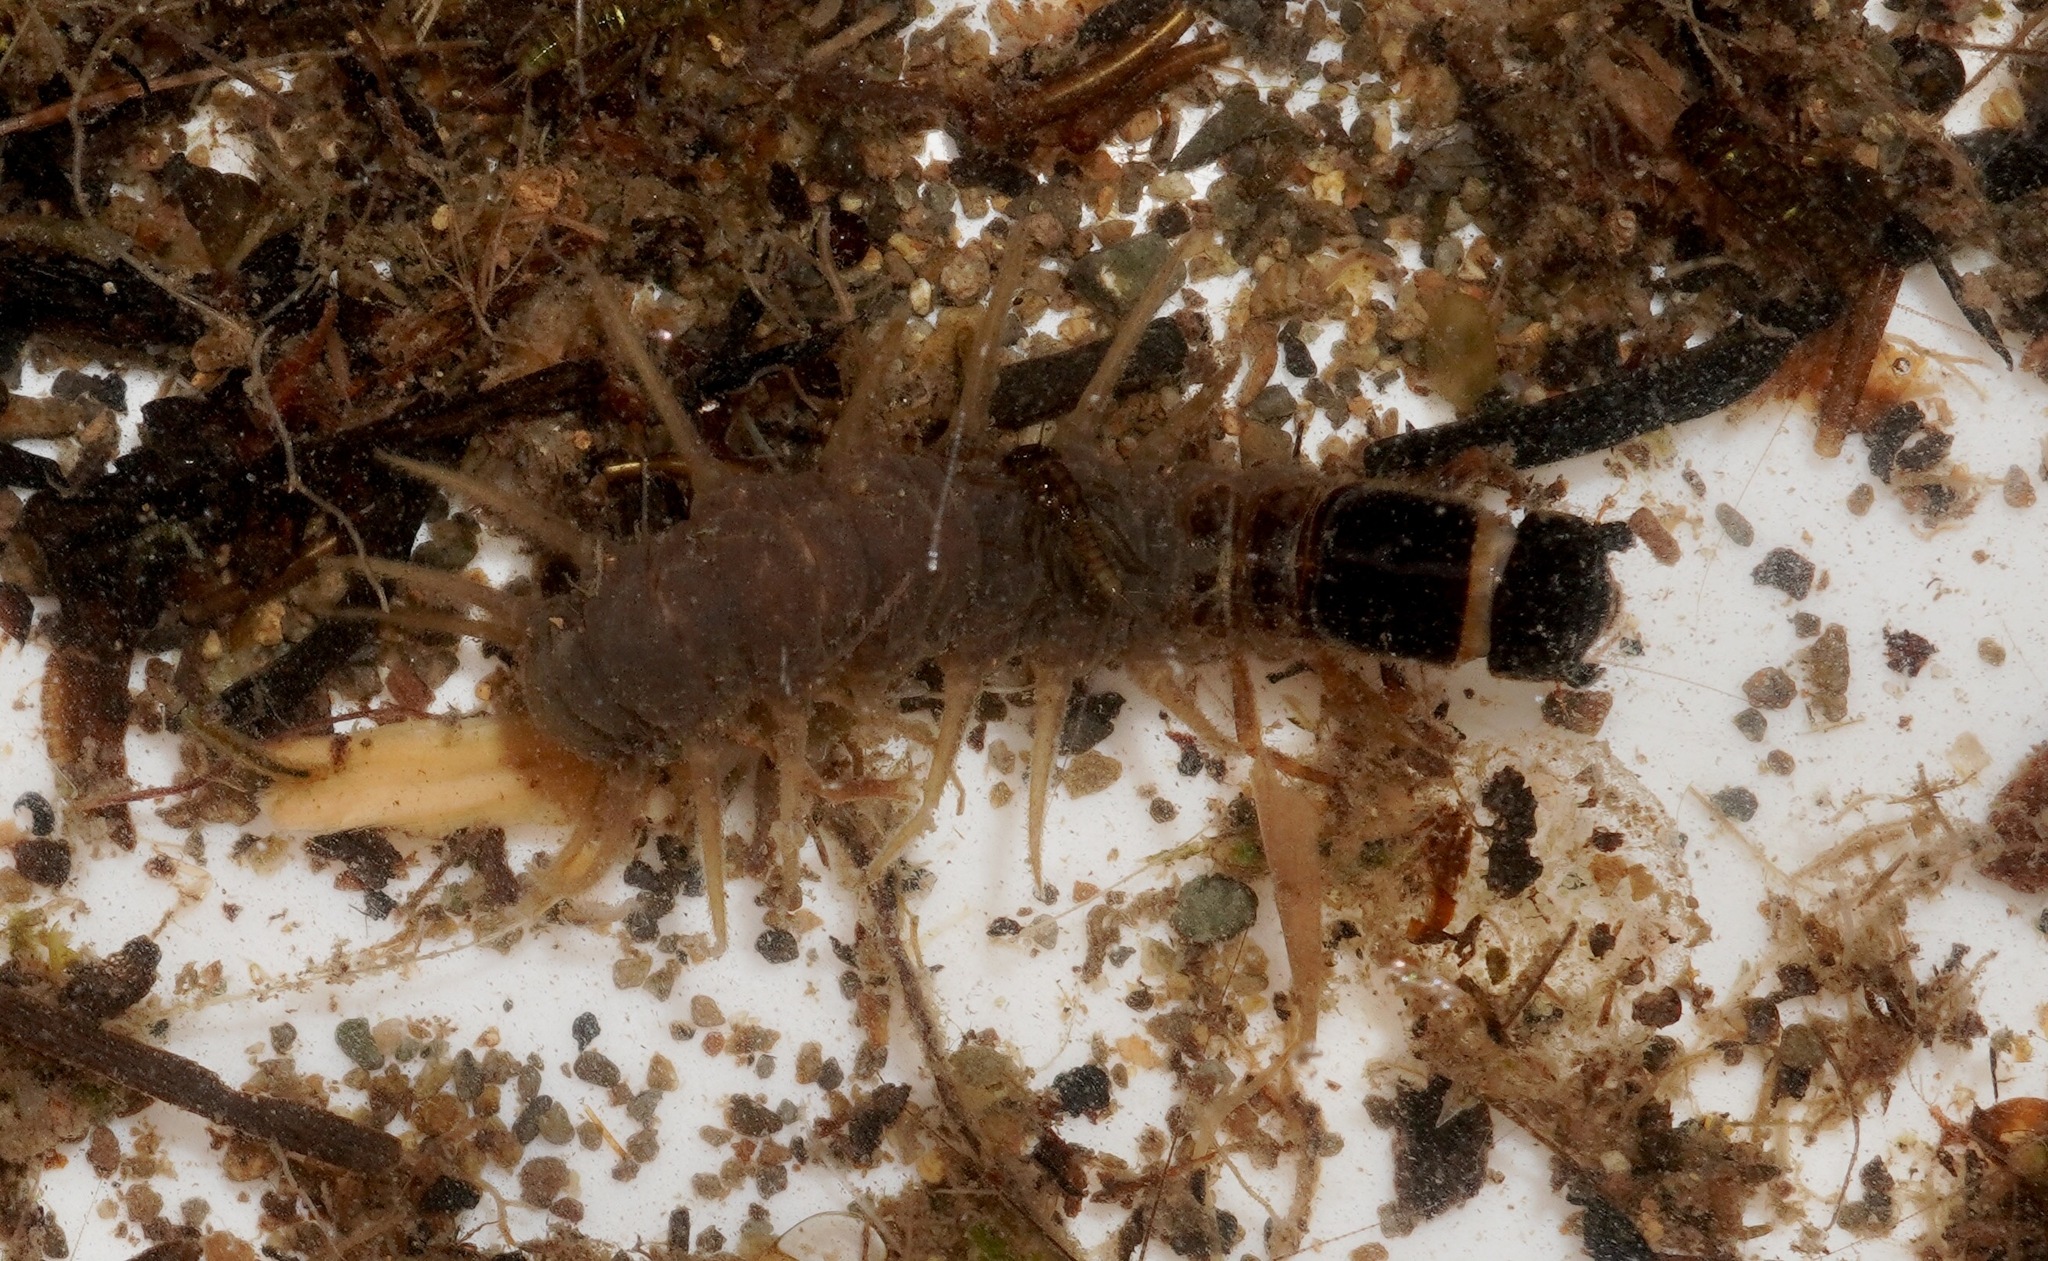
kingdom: Animalia
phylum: Arthropoda
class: Insecta
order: Megaloptera
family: Corydalidae
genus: Archichauliodes
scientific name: Archichauliodes diversus
